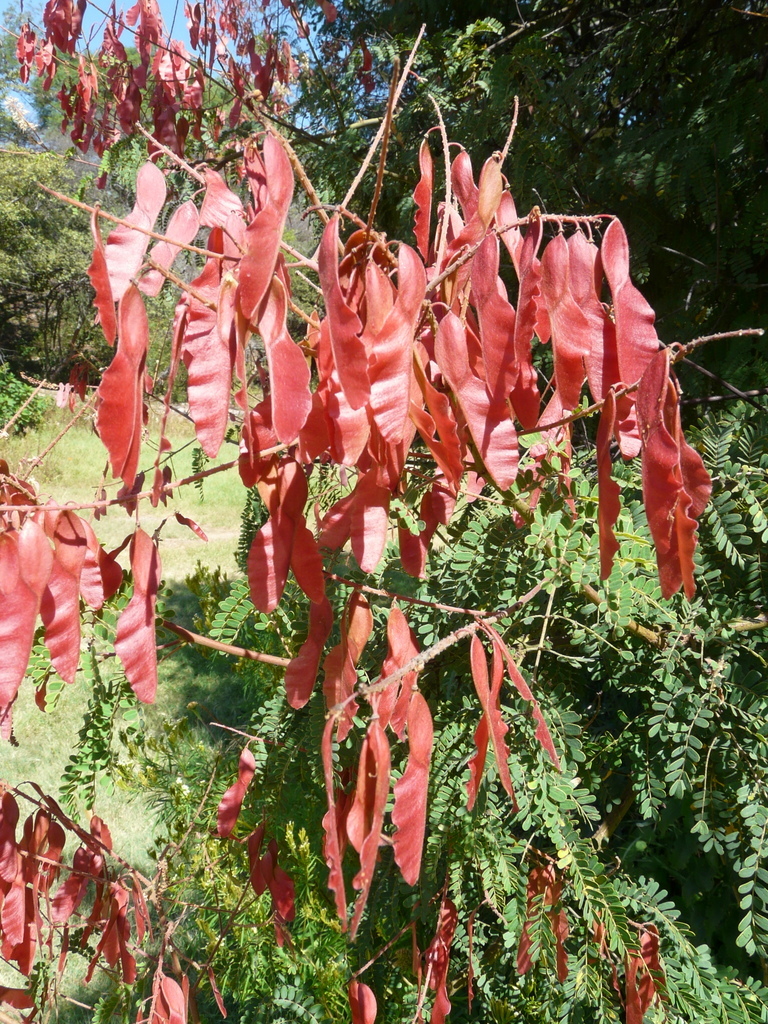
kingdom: Plantae
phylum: Tracheophyta
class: Magnoliopsida
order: Fabales
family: Fabaceae
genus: Pterolobium
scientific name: Pterolobium stellatum
